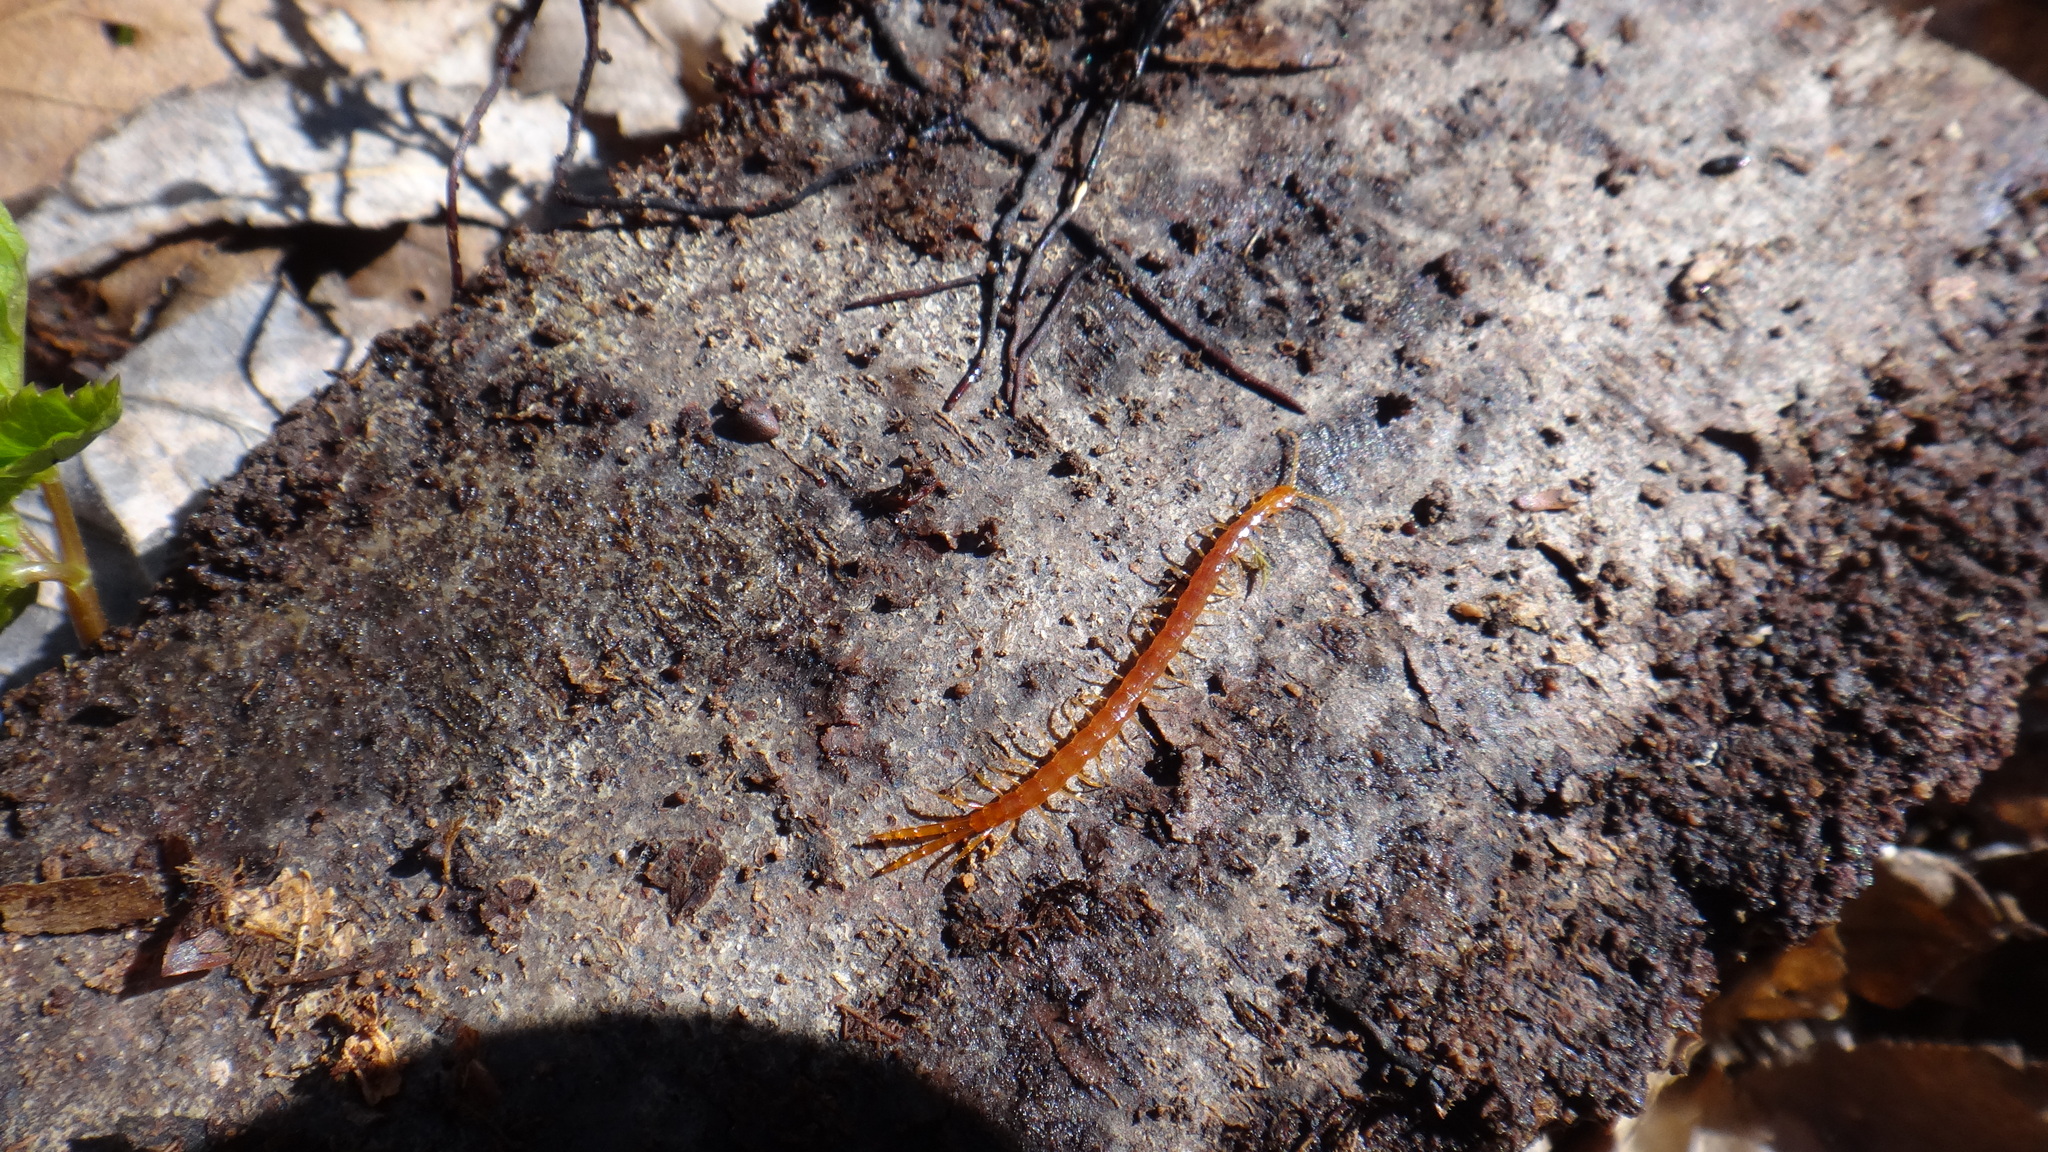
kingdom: Animalia
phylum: Arthropoda
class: Chilopoda
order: Scolopendromorpha
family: Cryptopidae
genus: Cryptops
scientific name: Cryptops hortensis
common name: Centipede
